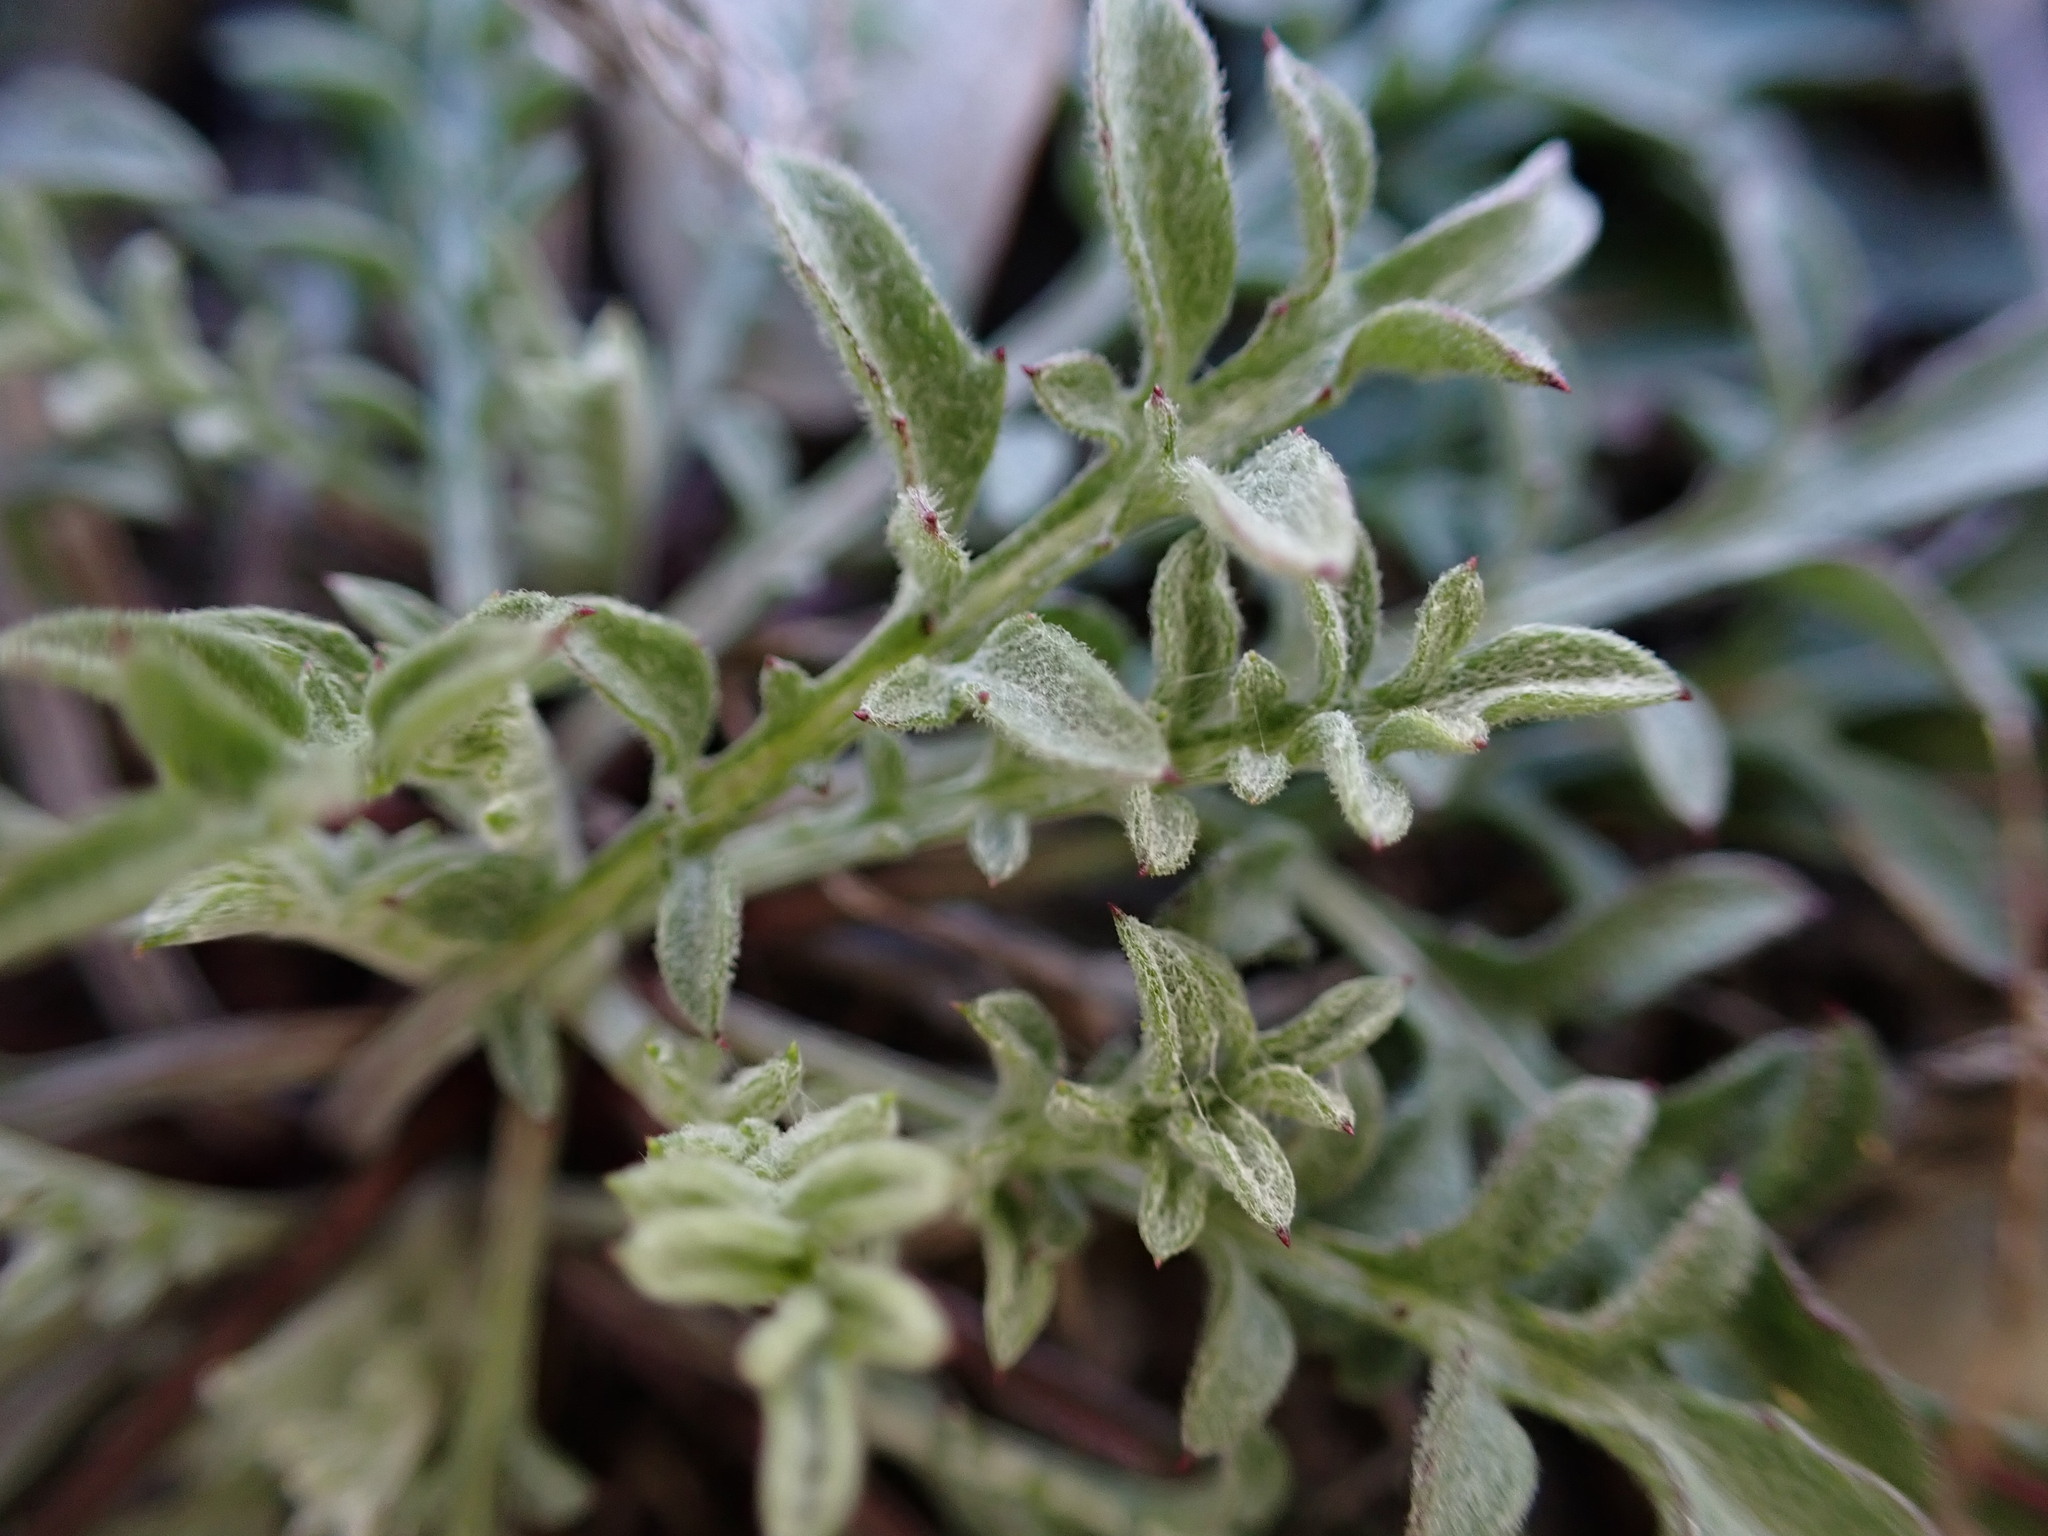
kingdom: Plantae
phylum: Tracheophyta
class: Magnoliopsida
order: Asterales
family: Asteraceae
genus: Centaurea
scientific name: Centaurea paniculata
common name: Jersey knapweed
